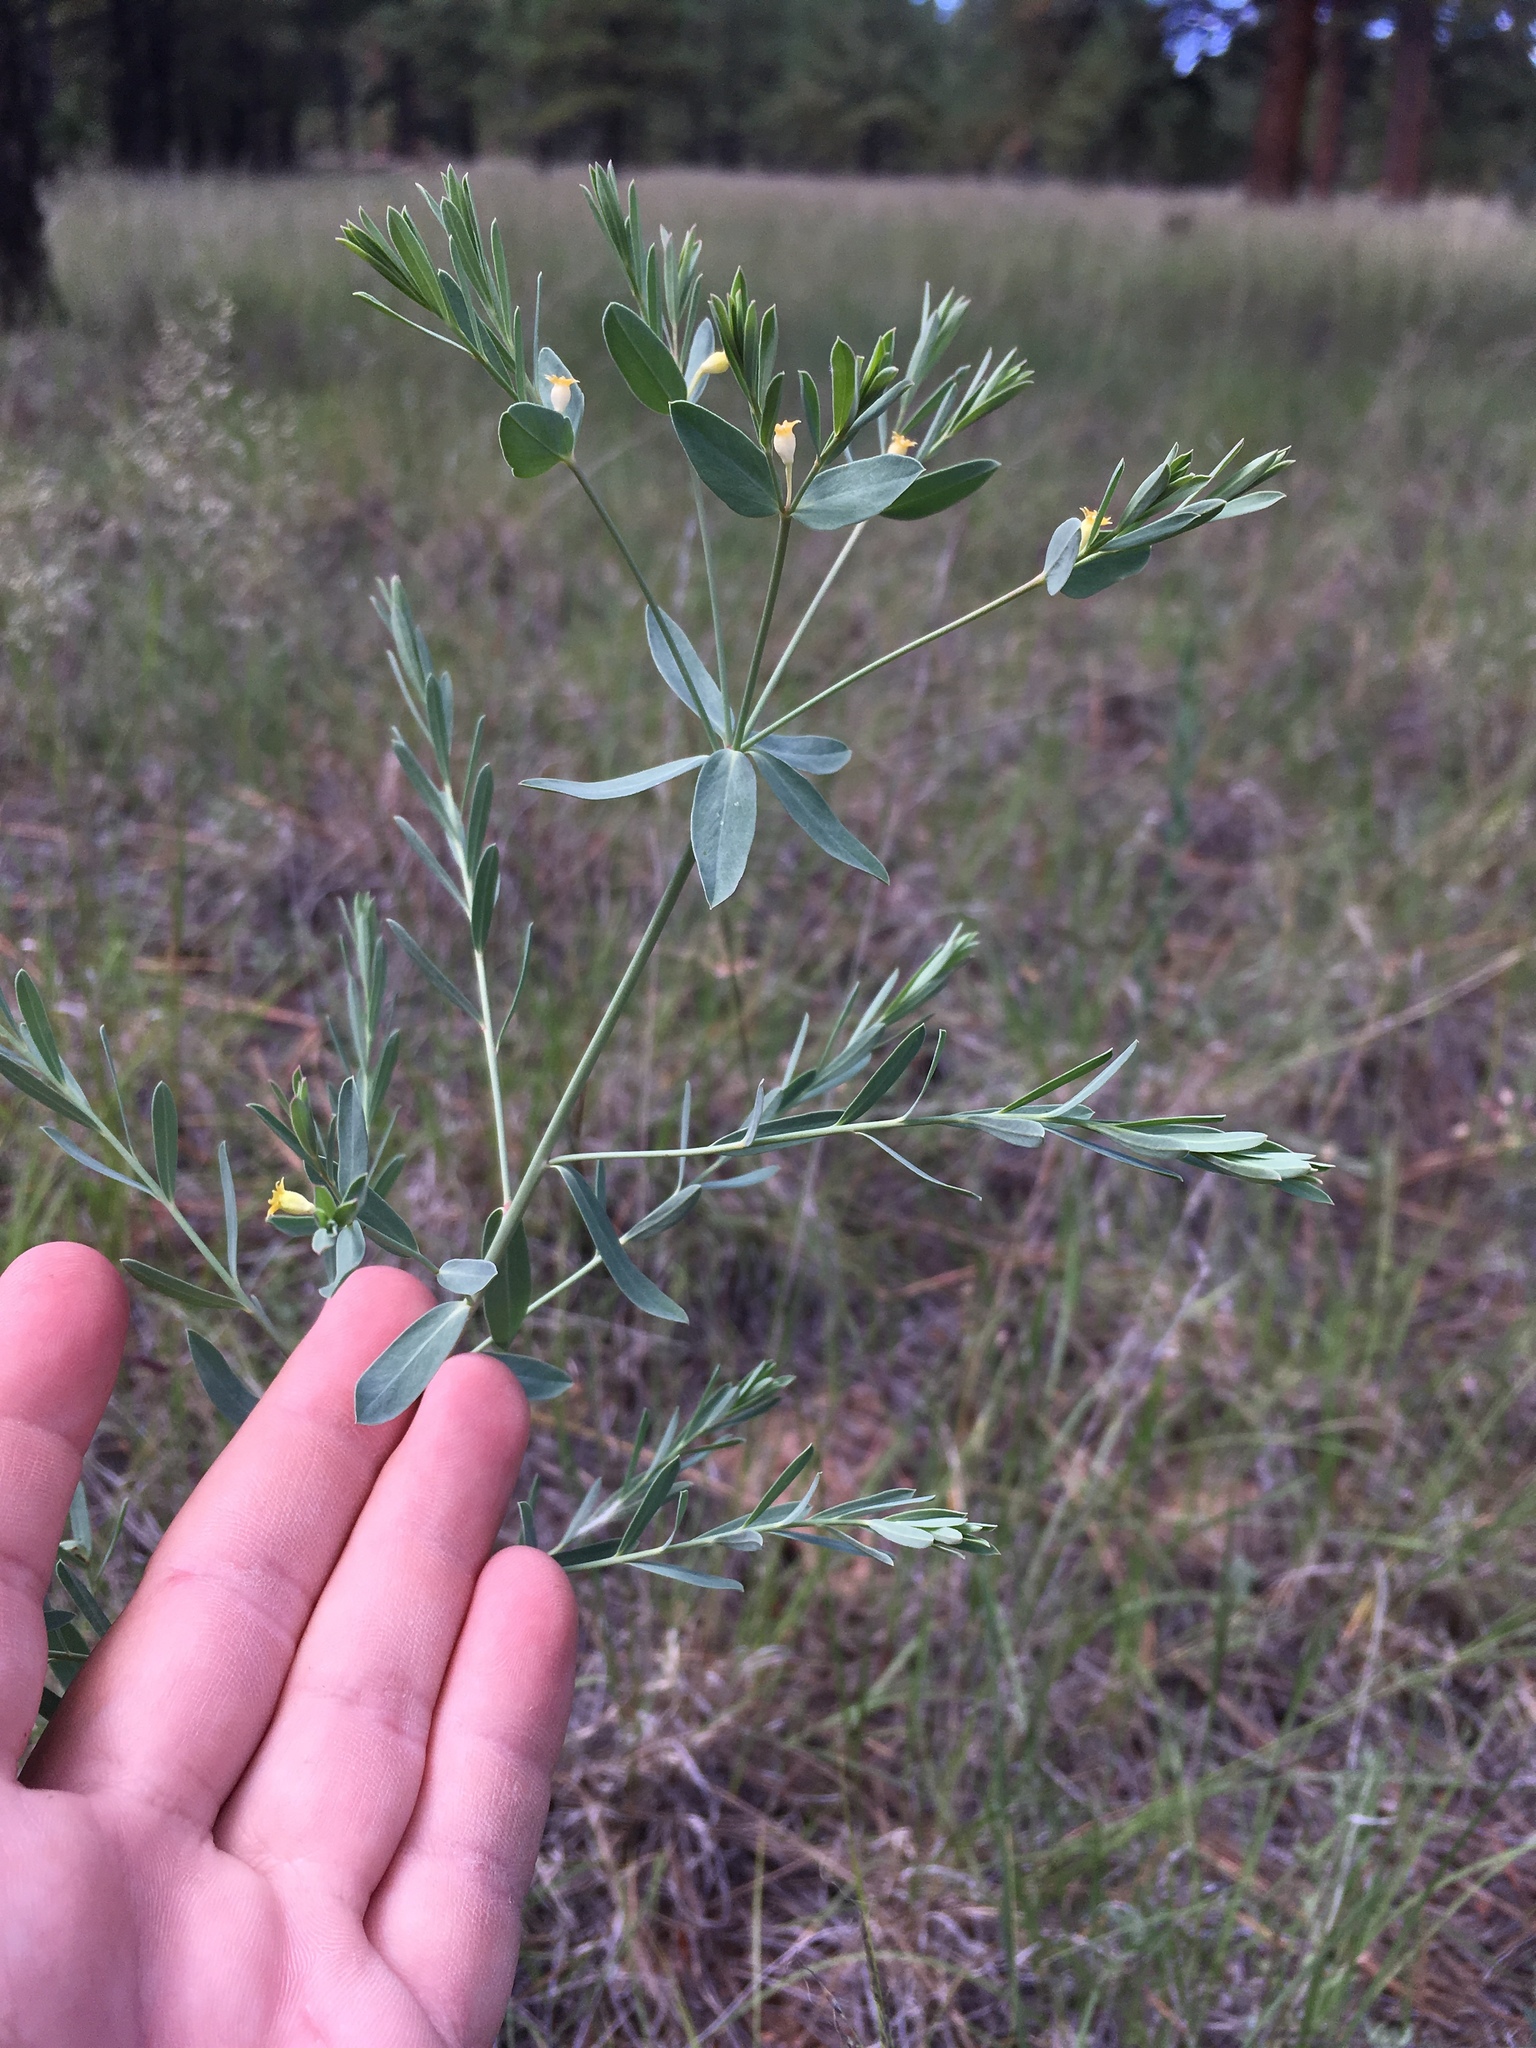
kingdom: Plantae
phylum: Tracheophyta
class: Magnoliopsida
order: Malpighiales
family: Euphorbiaceae
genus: Euphorbia
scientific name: Euphorbia chamaesula
